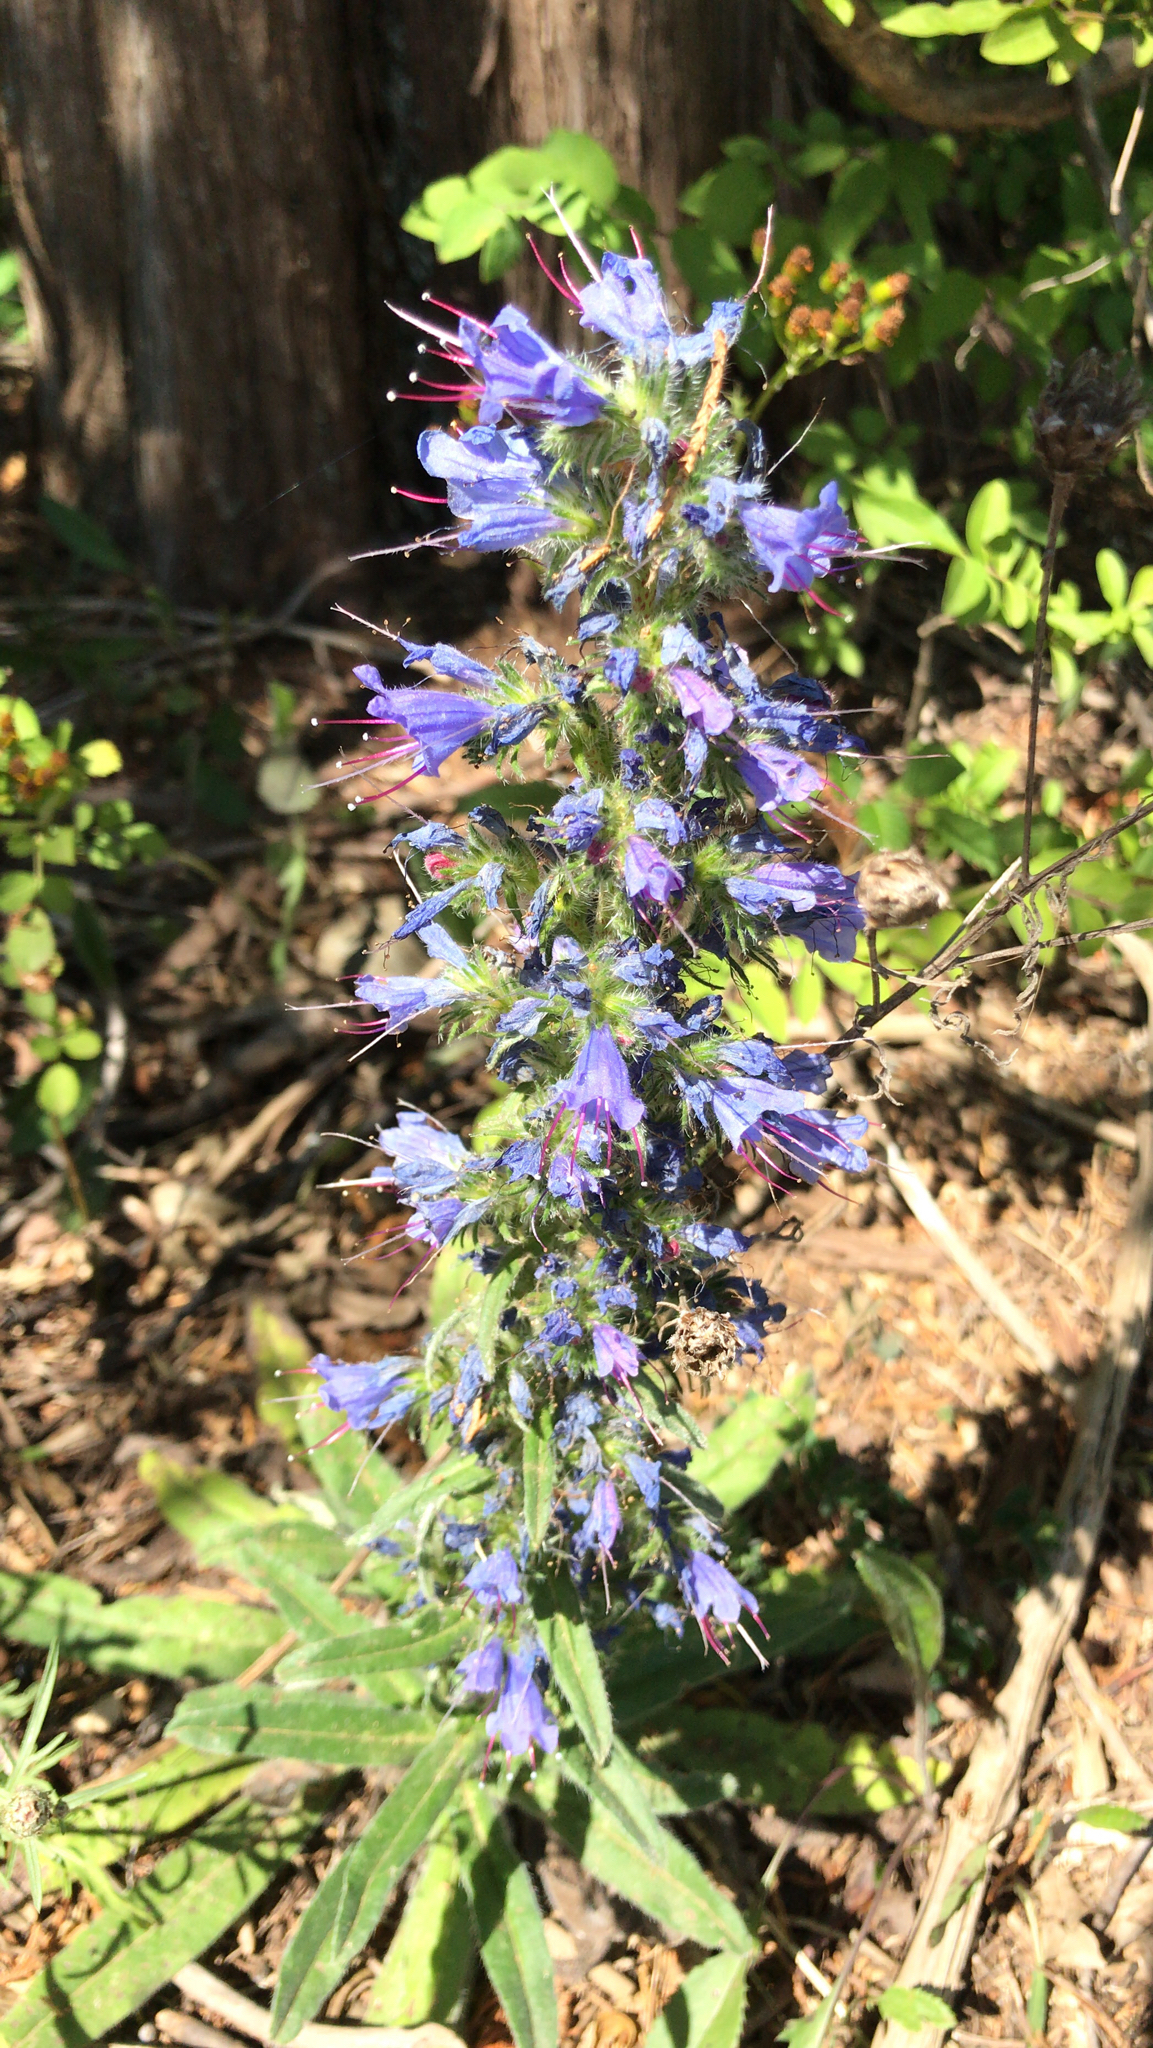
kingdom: Plantae
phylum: Tracheophyta
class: Magnoliopsida
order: Boraginales
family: Boraginaceae
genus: Echium
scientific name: Echium vulgare
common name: Common viper's bugloss
